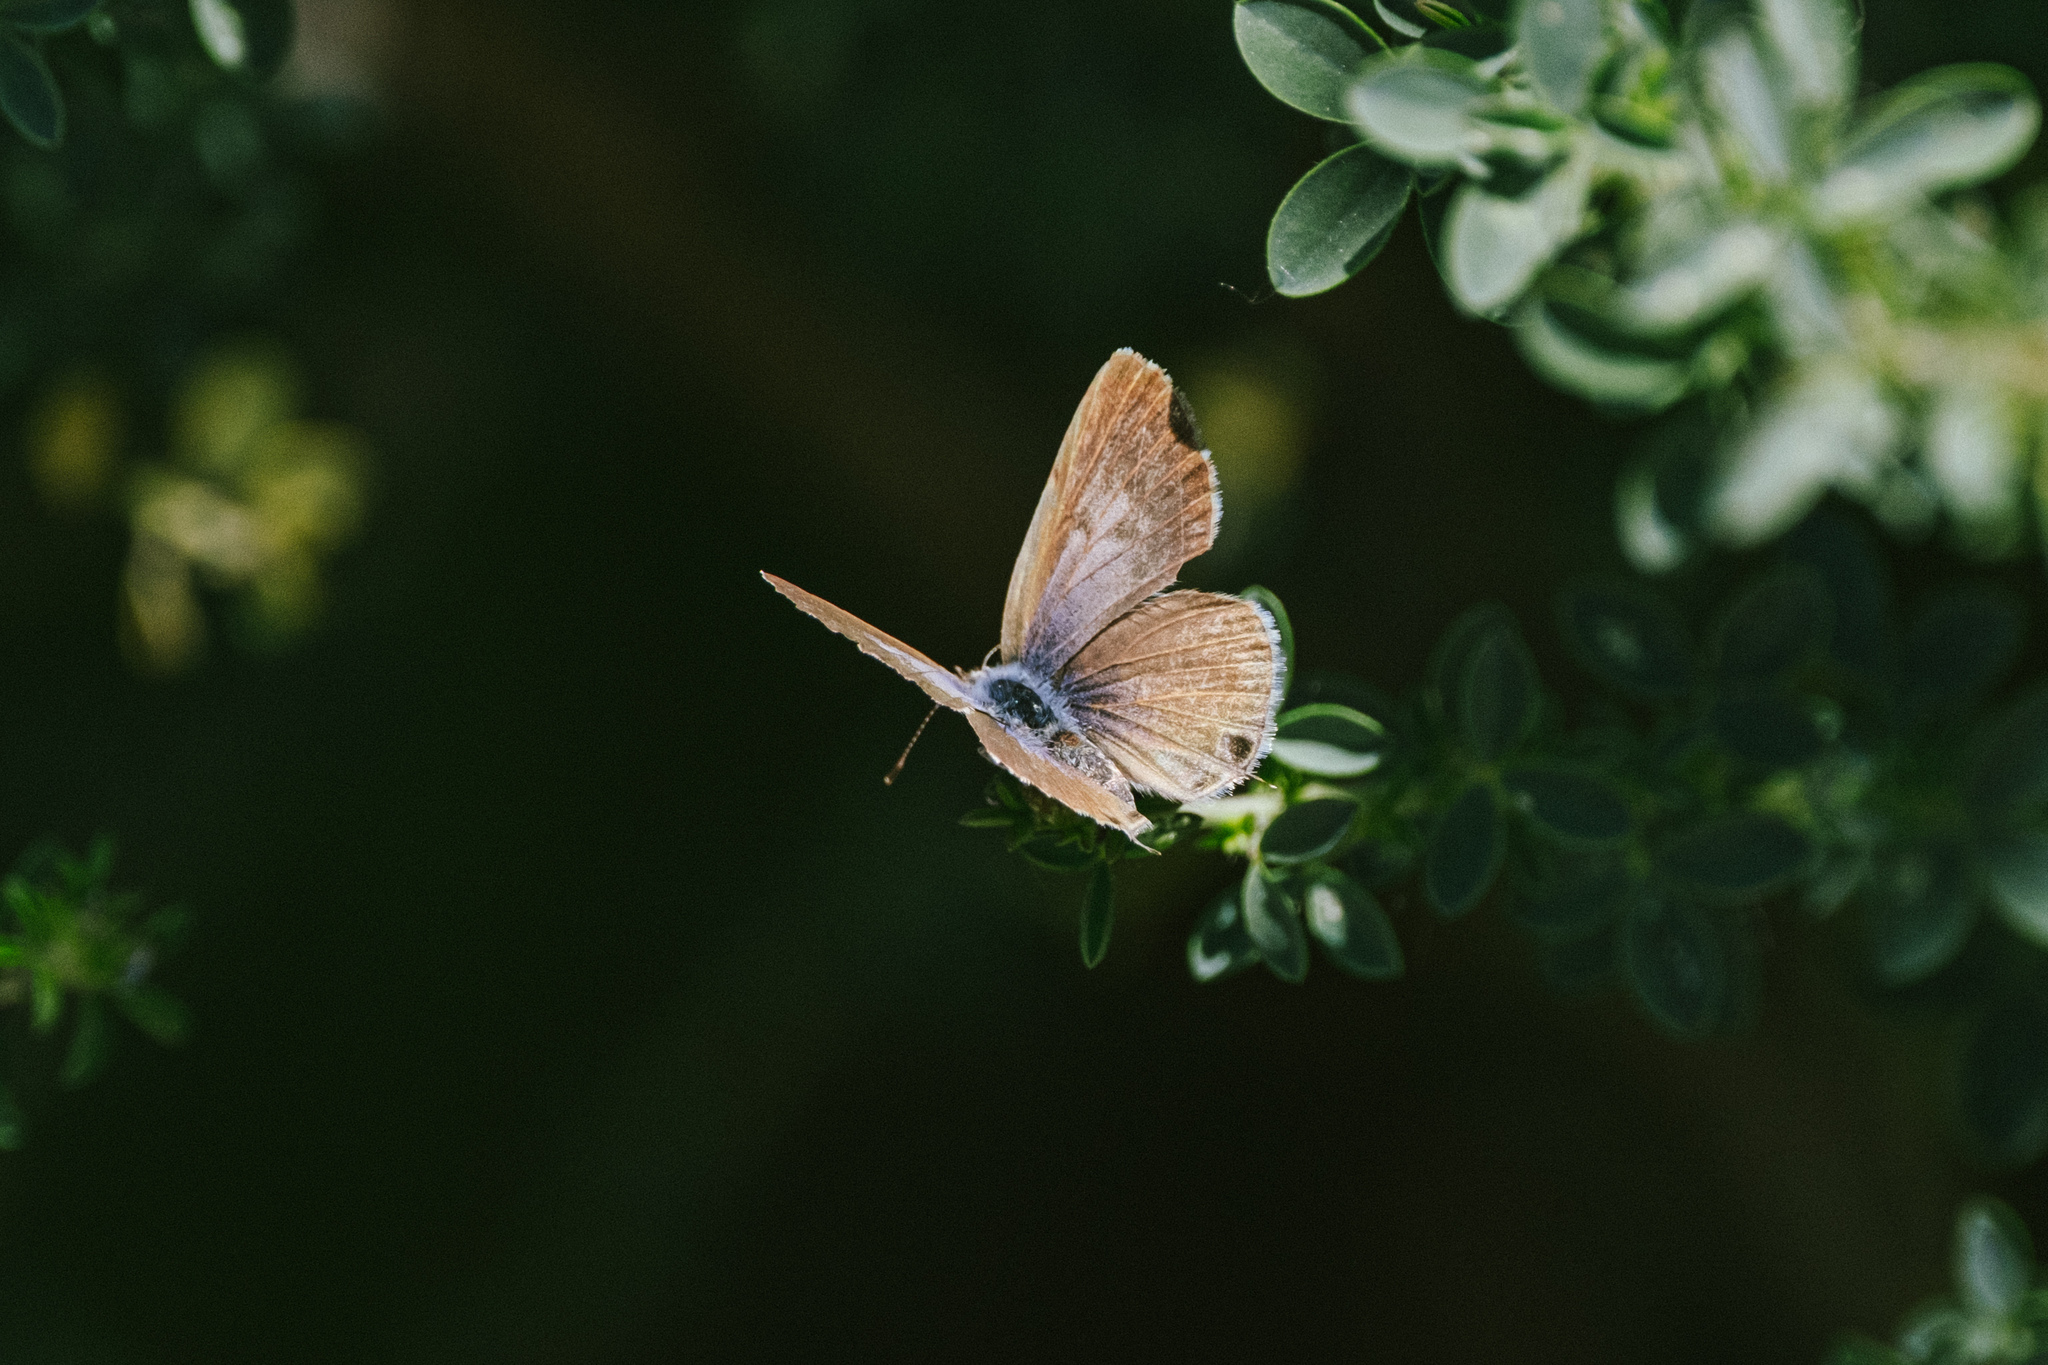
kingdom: Animalia
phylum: Arthropoda
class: Insecta
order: Lepidoptera
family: Lycaenidae
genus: Leptotes
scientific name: Leptotes pirithous
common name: Lang's short-tailed blue
